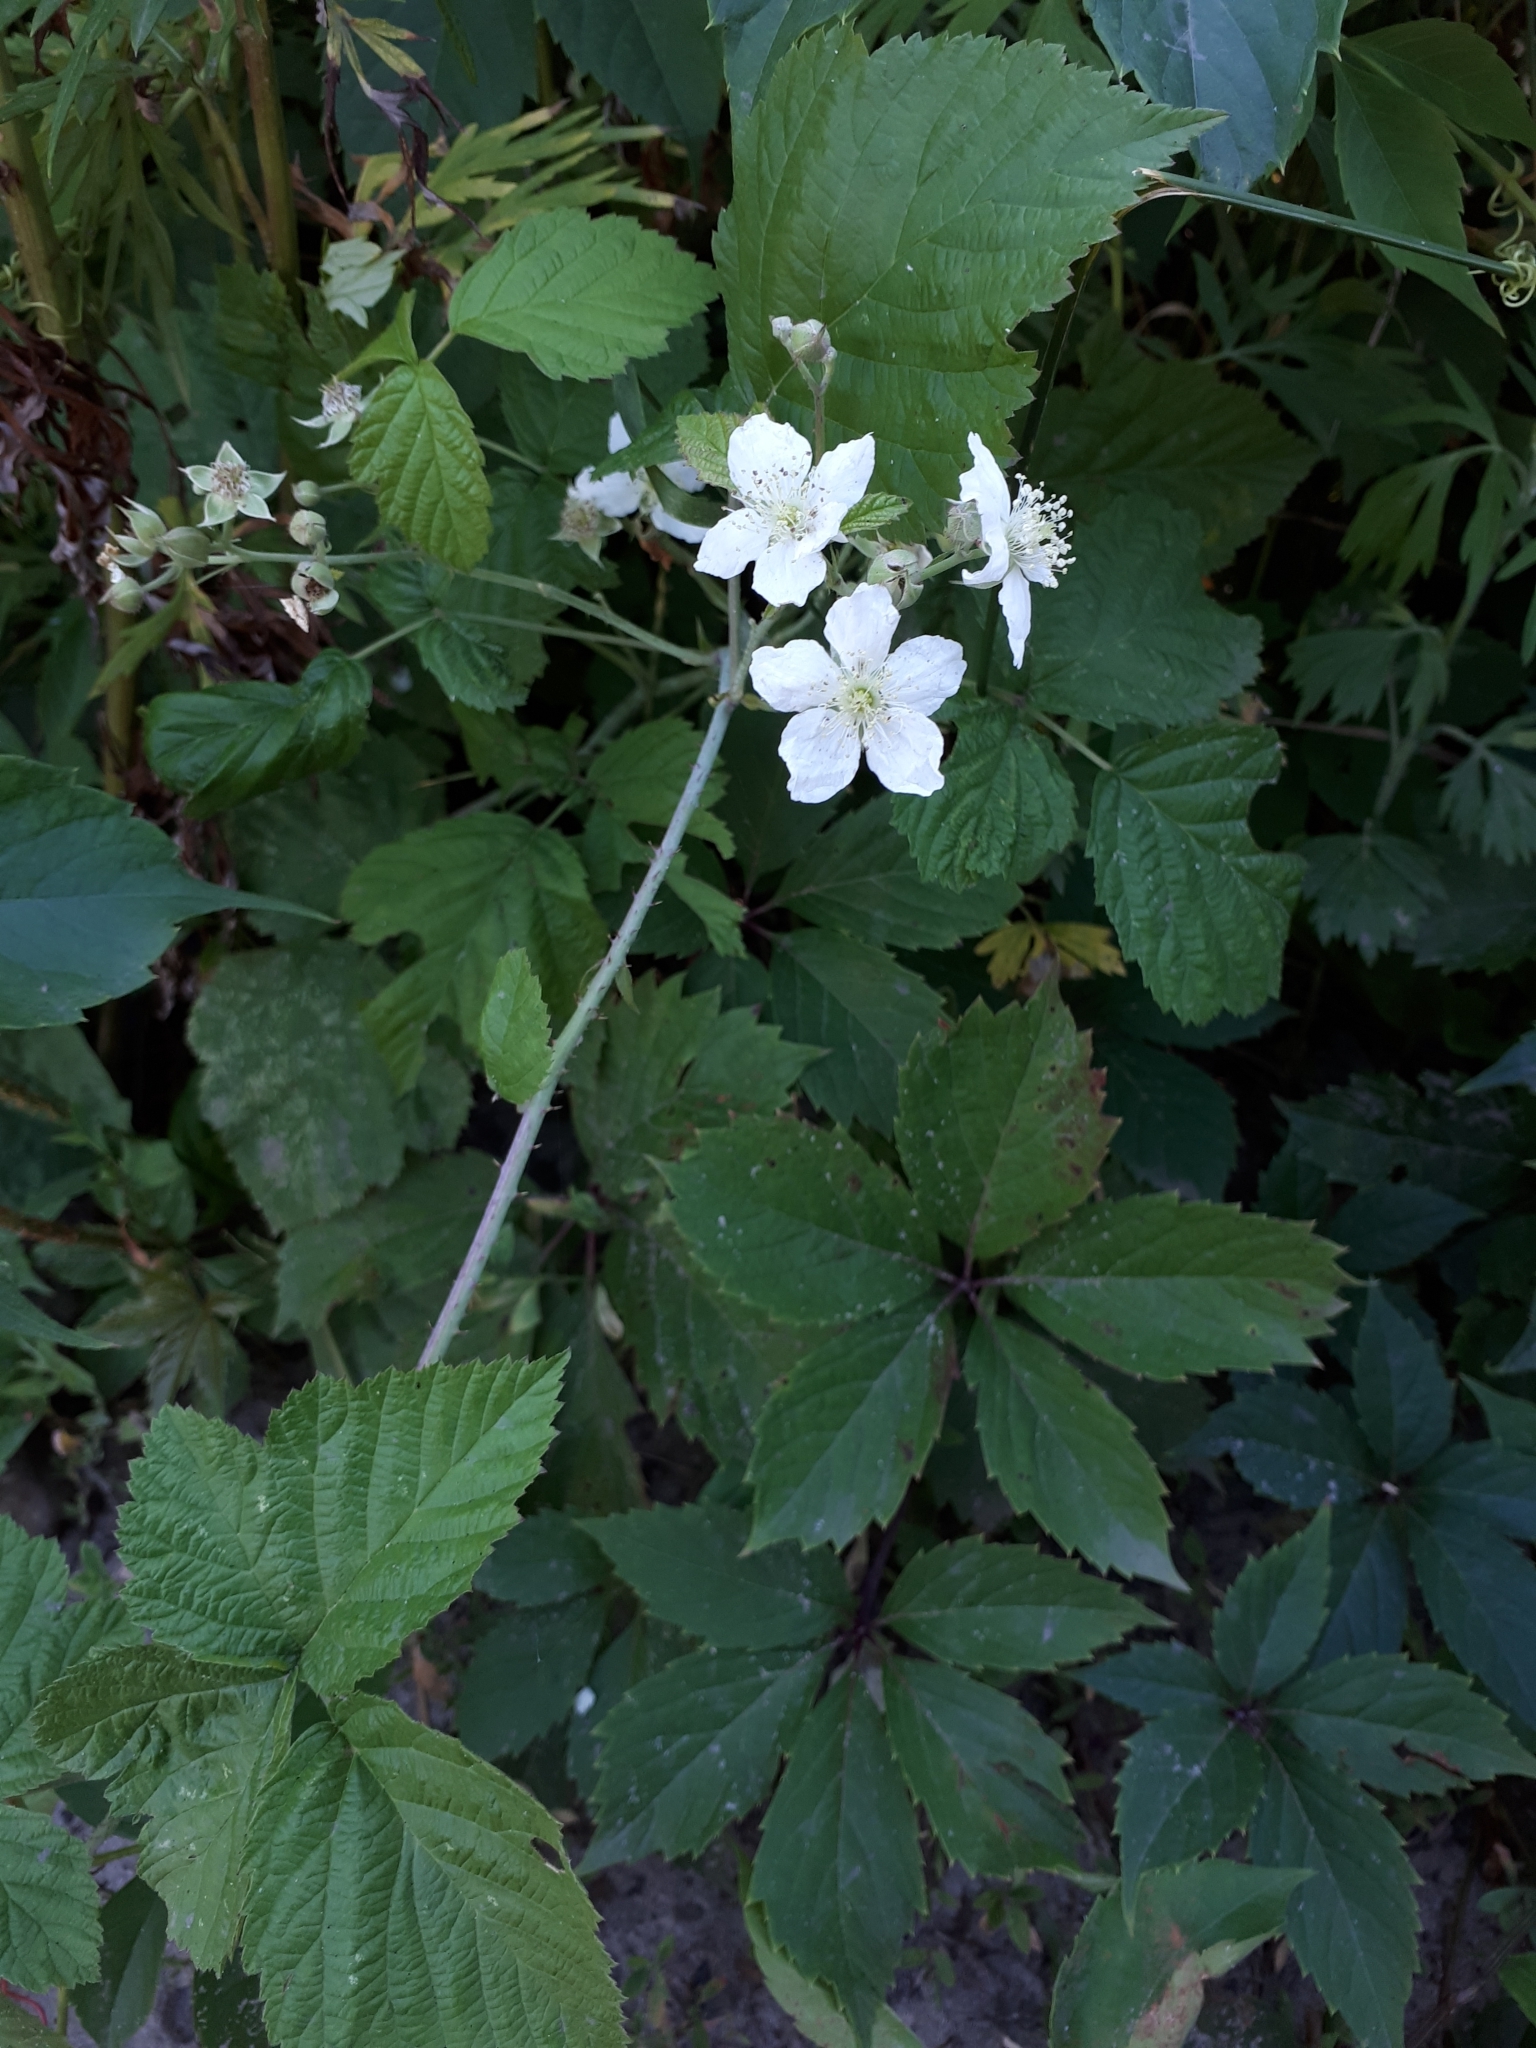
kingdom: Plantae
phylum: Tracheophyta
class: Magnoliopsida
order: Rosales
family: Rosaceae
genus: Rubus
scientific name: Rubus caesius
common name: Dewberry
